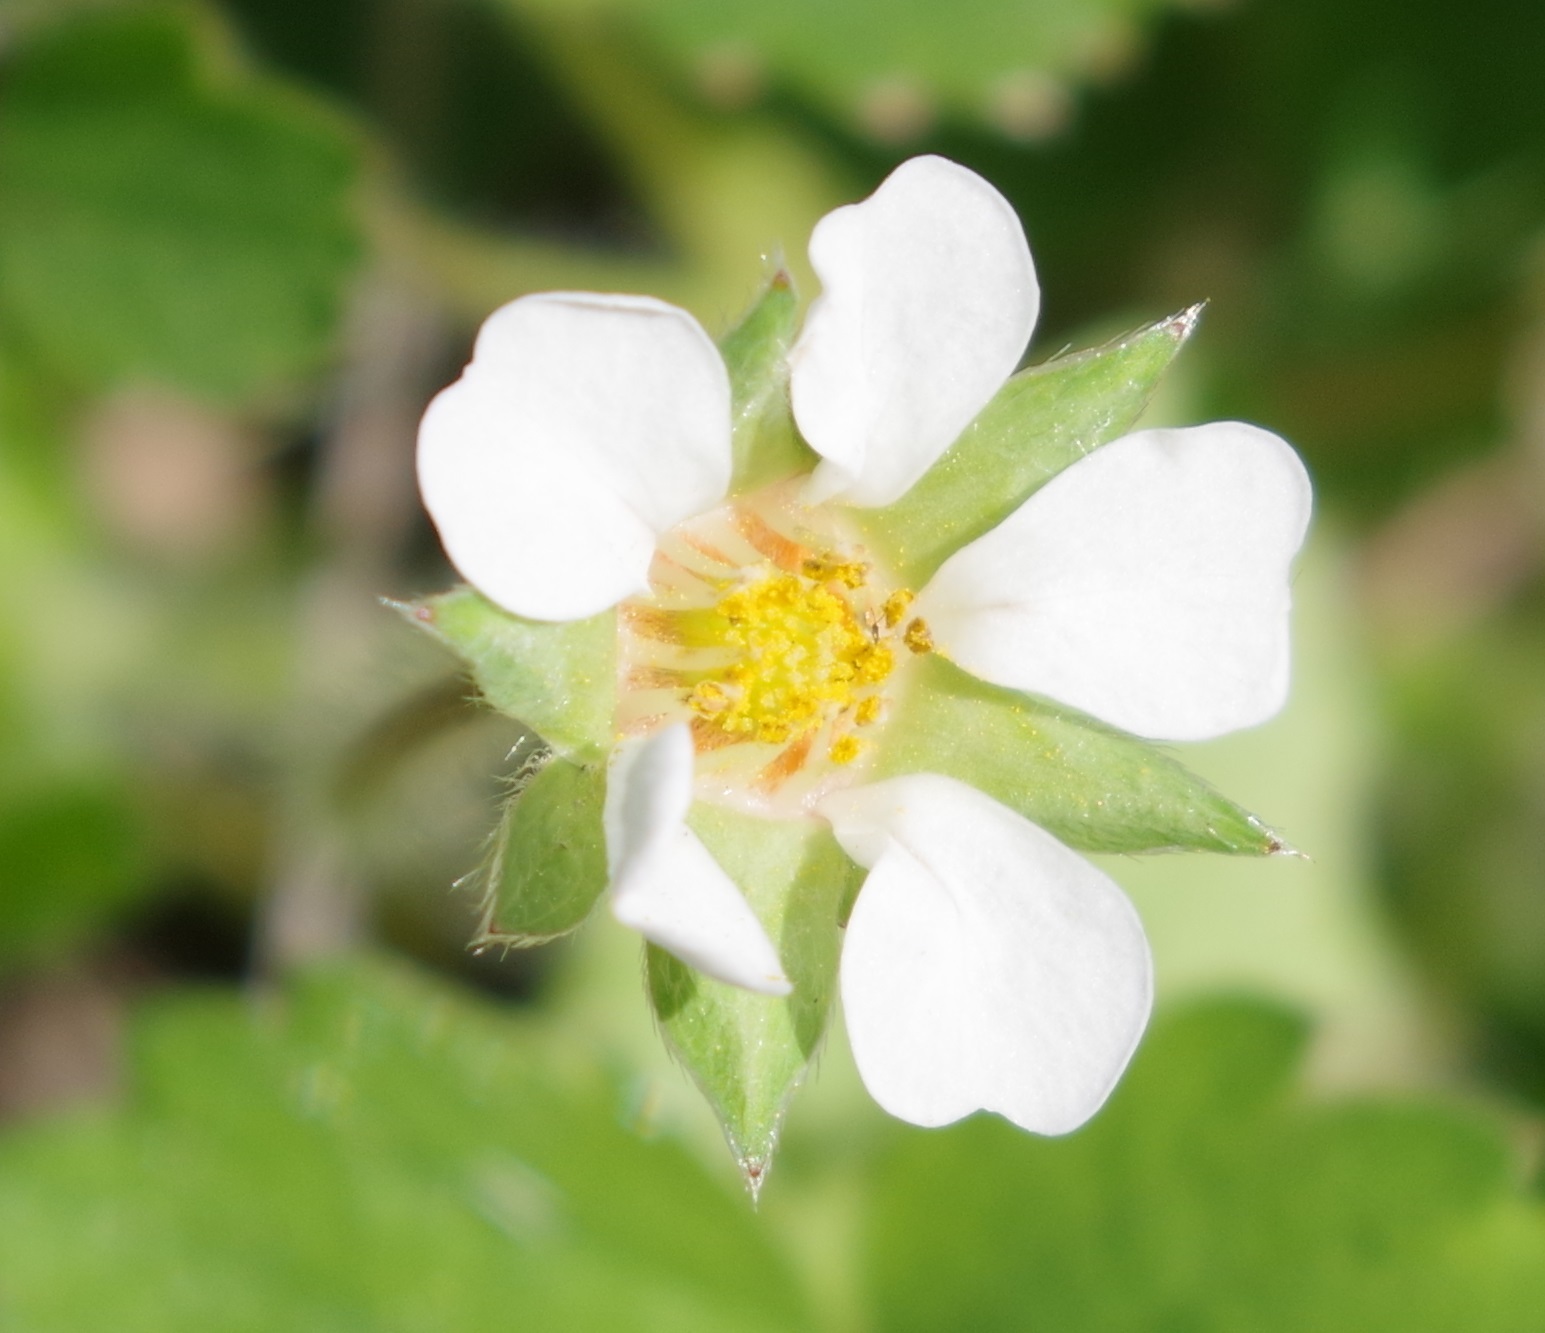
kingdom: Plantae
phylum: Tracheophyta
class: Magnoliopsida
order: Rosales
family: Rosaceae
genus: Potentilla
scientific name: Potentilla sterilis
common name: Barren strawberry
